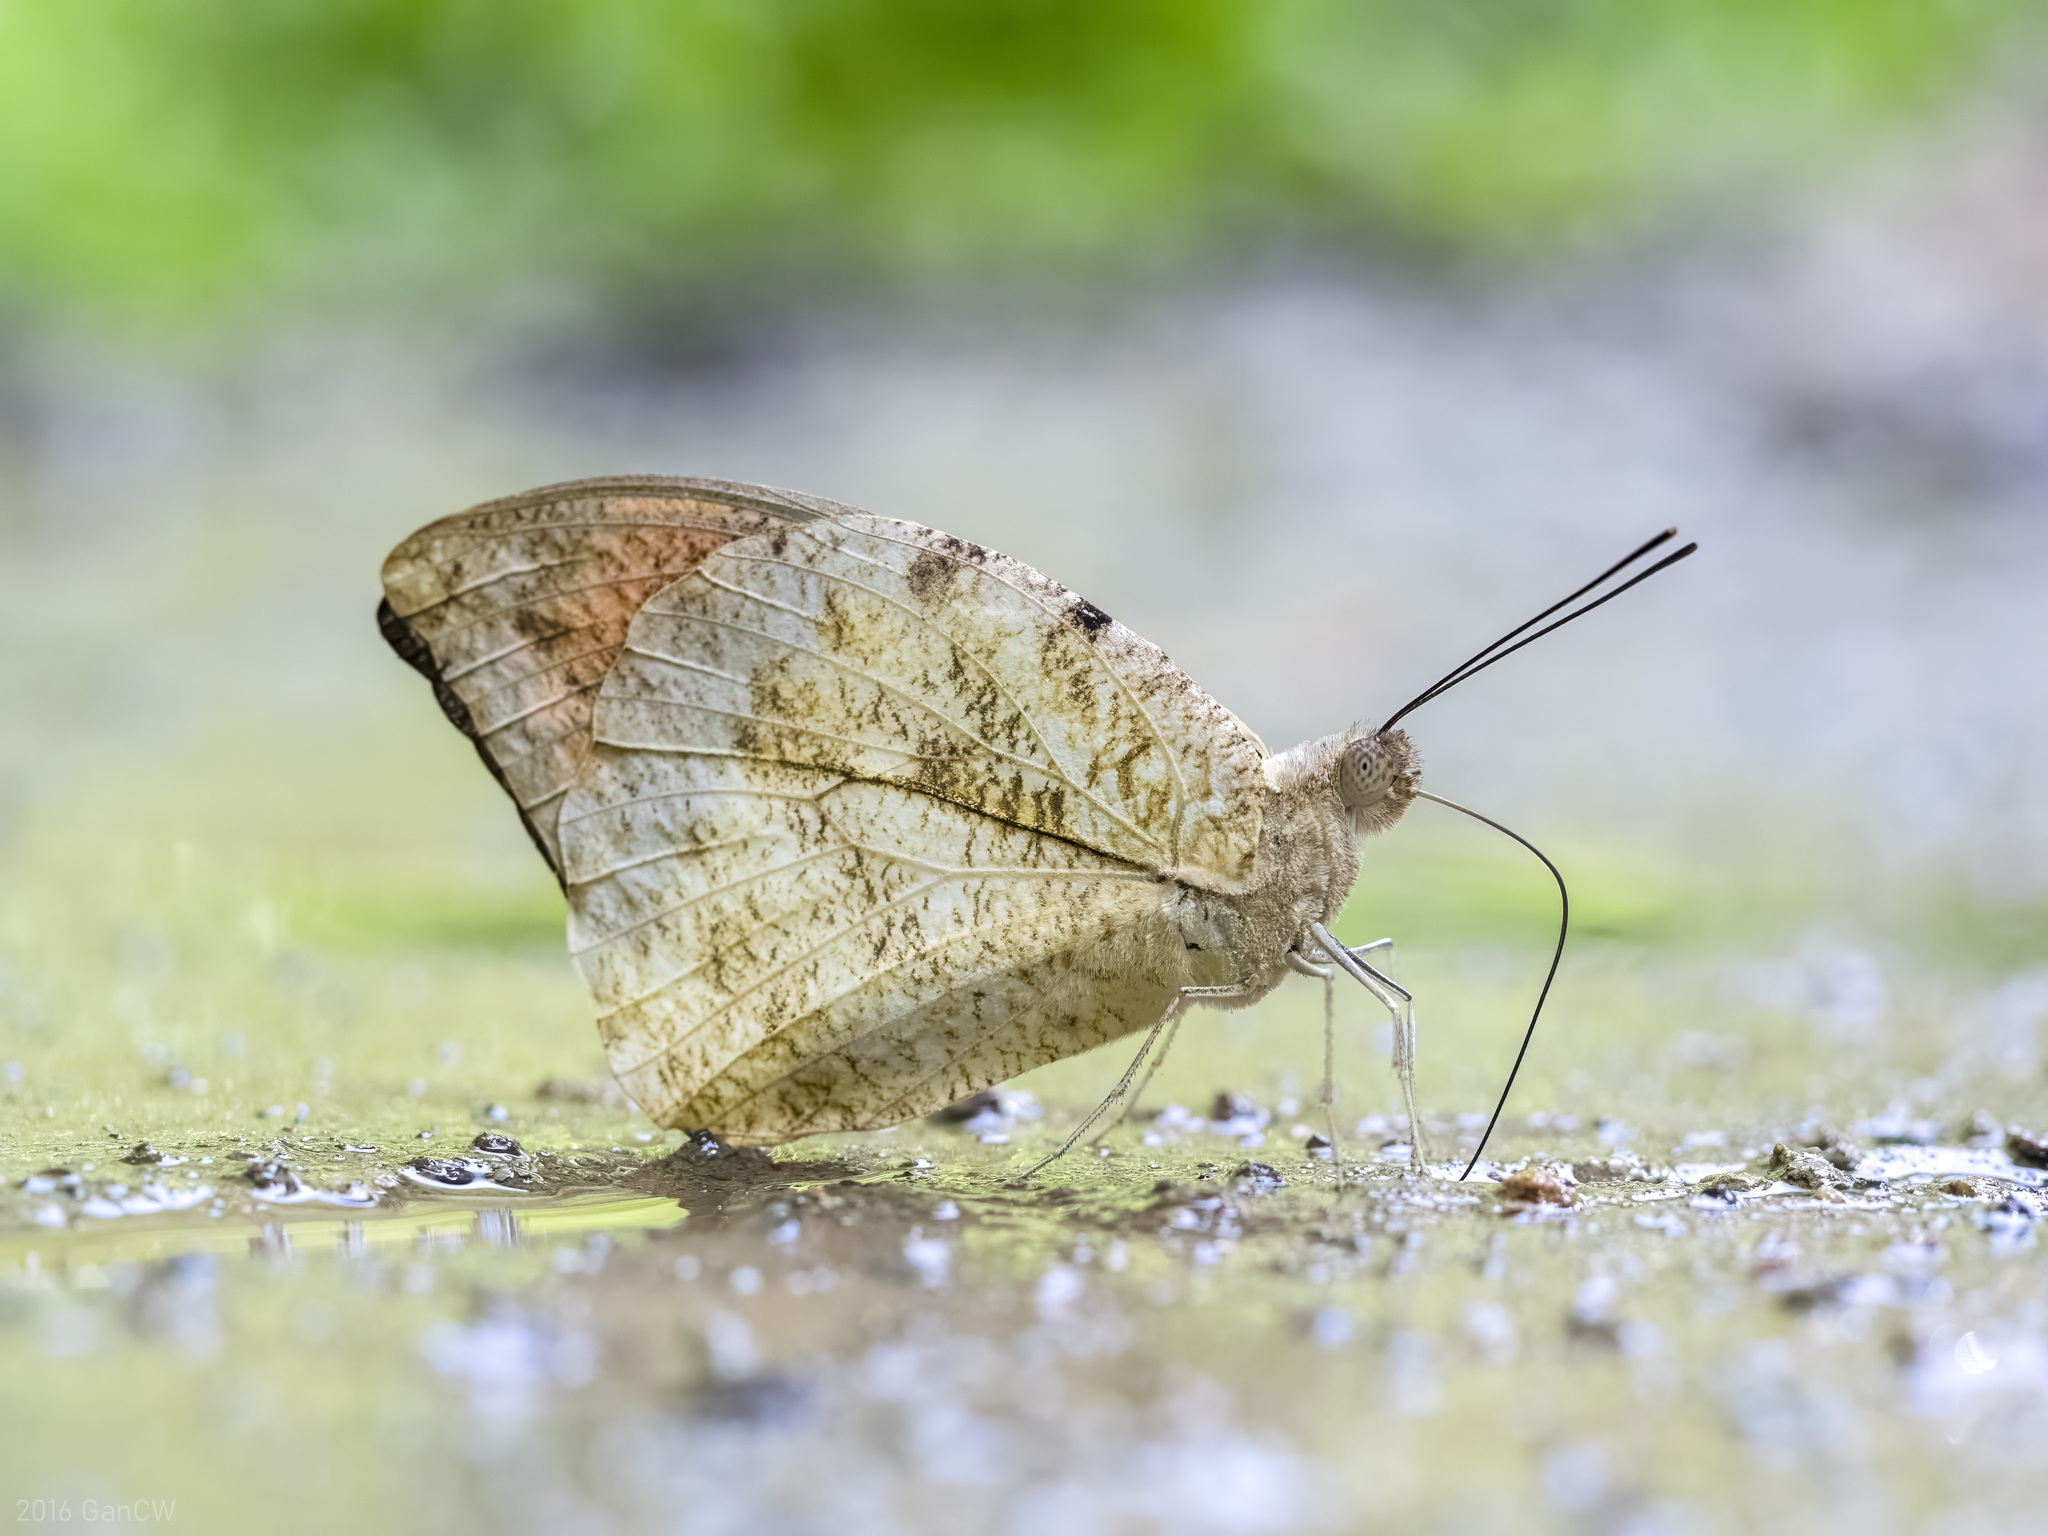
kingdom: Animalia
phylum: Arthropoda
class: Insecta
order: Lepidoptera
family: Pieridae
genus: Hebomoia
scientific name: Hebomoia glaucippe
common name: Great orange tip
